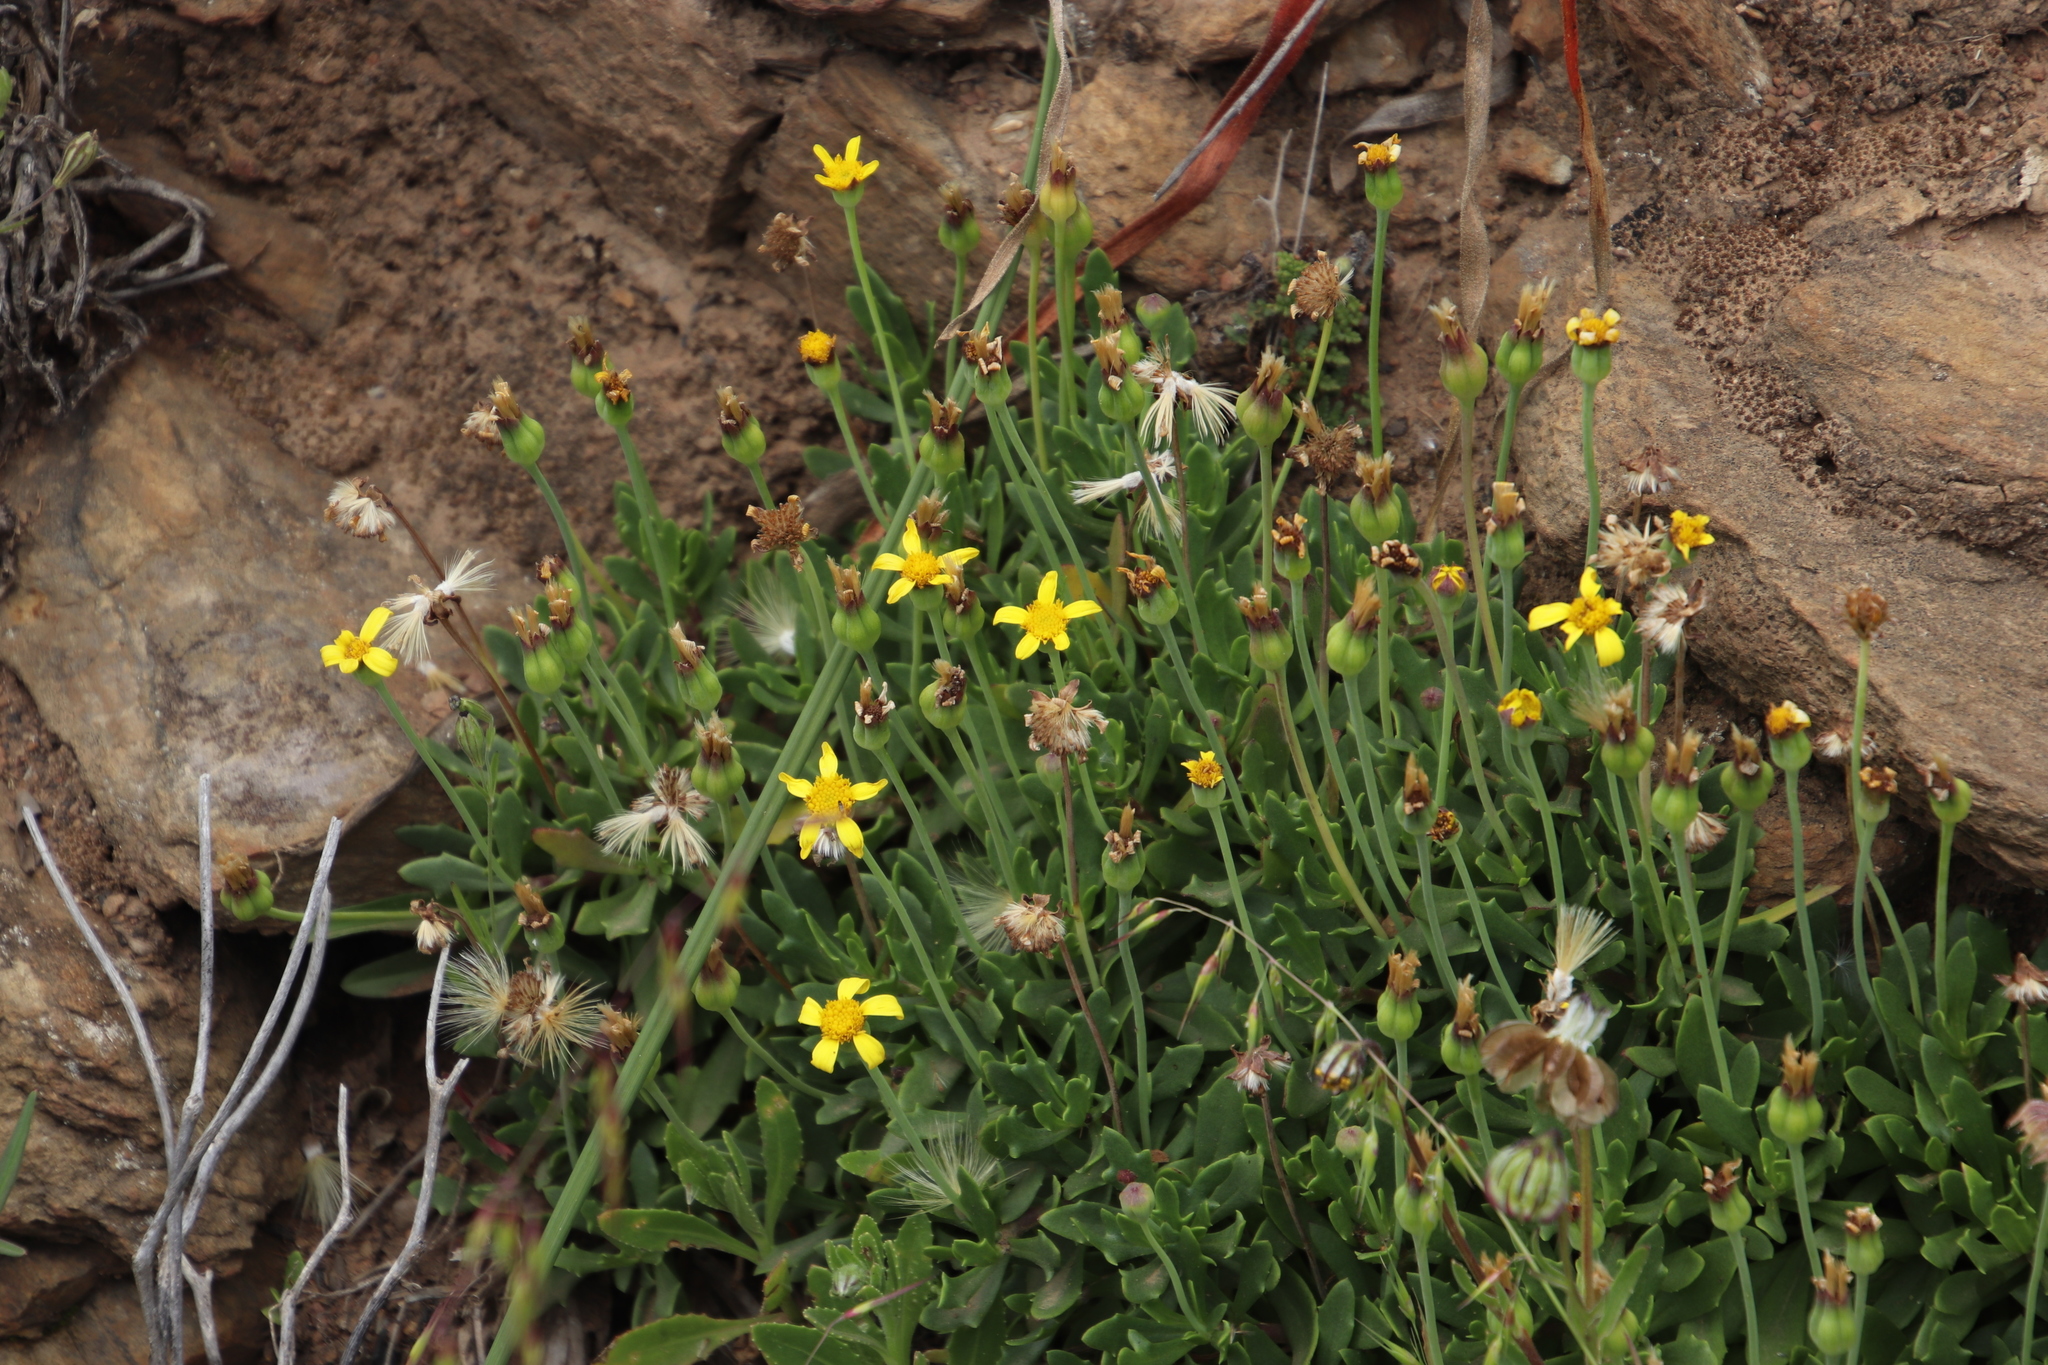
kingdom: Plantae
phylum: Tracheophyta
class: Magnoliopsida
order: Asterales
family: Asteraceae
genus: Othonna
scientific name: Othonna arborescens
